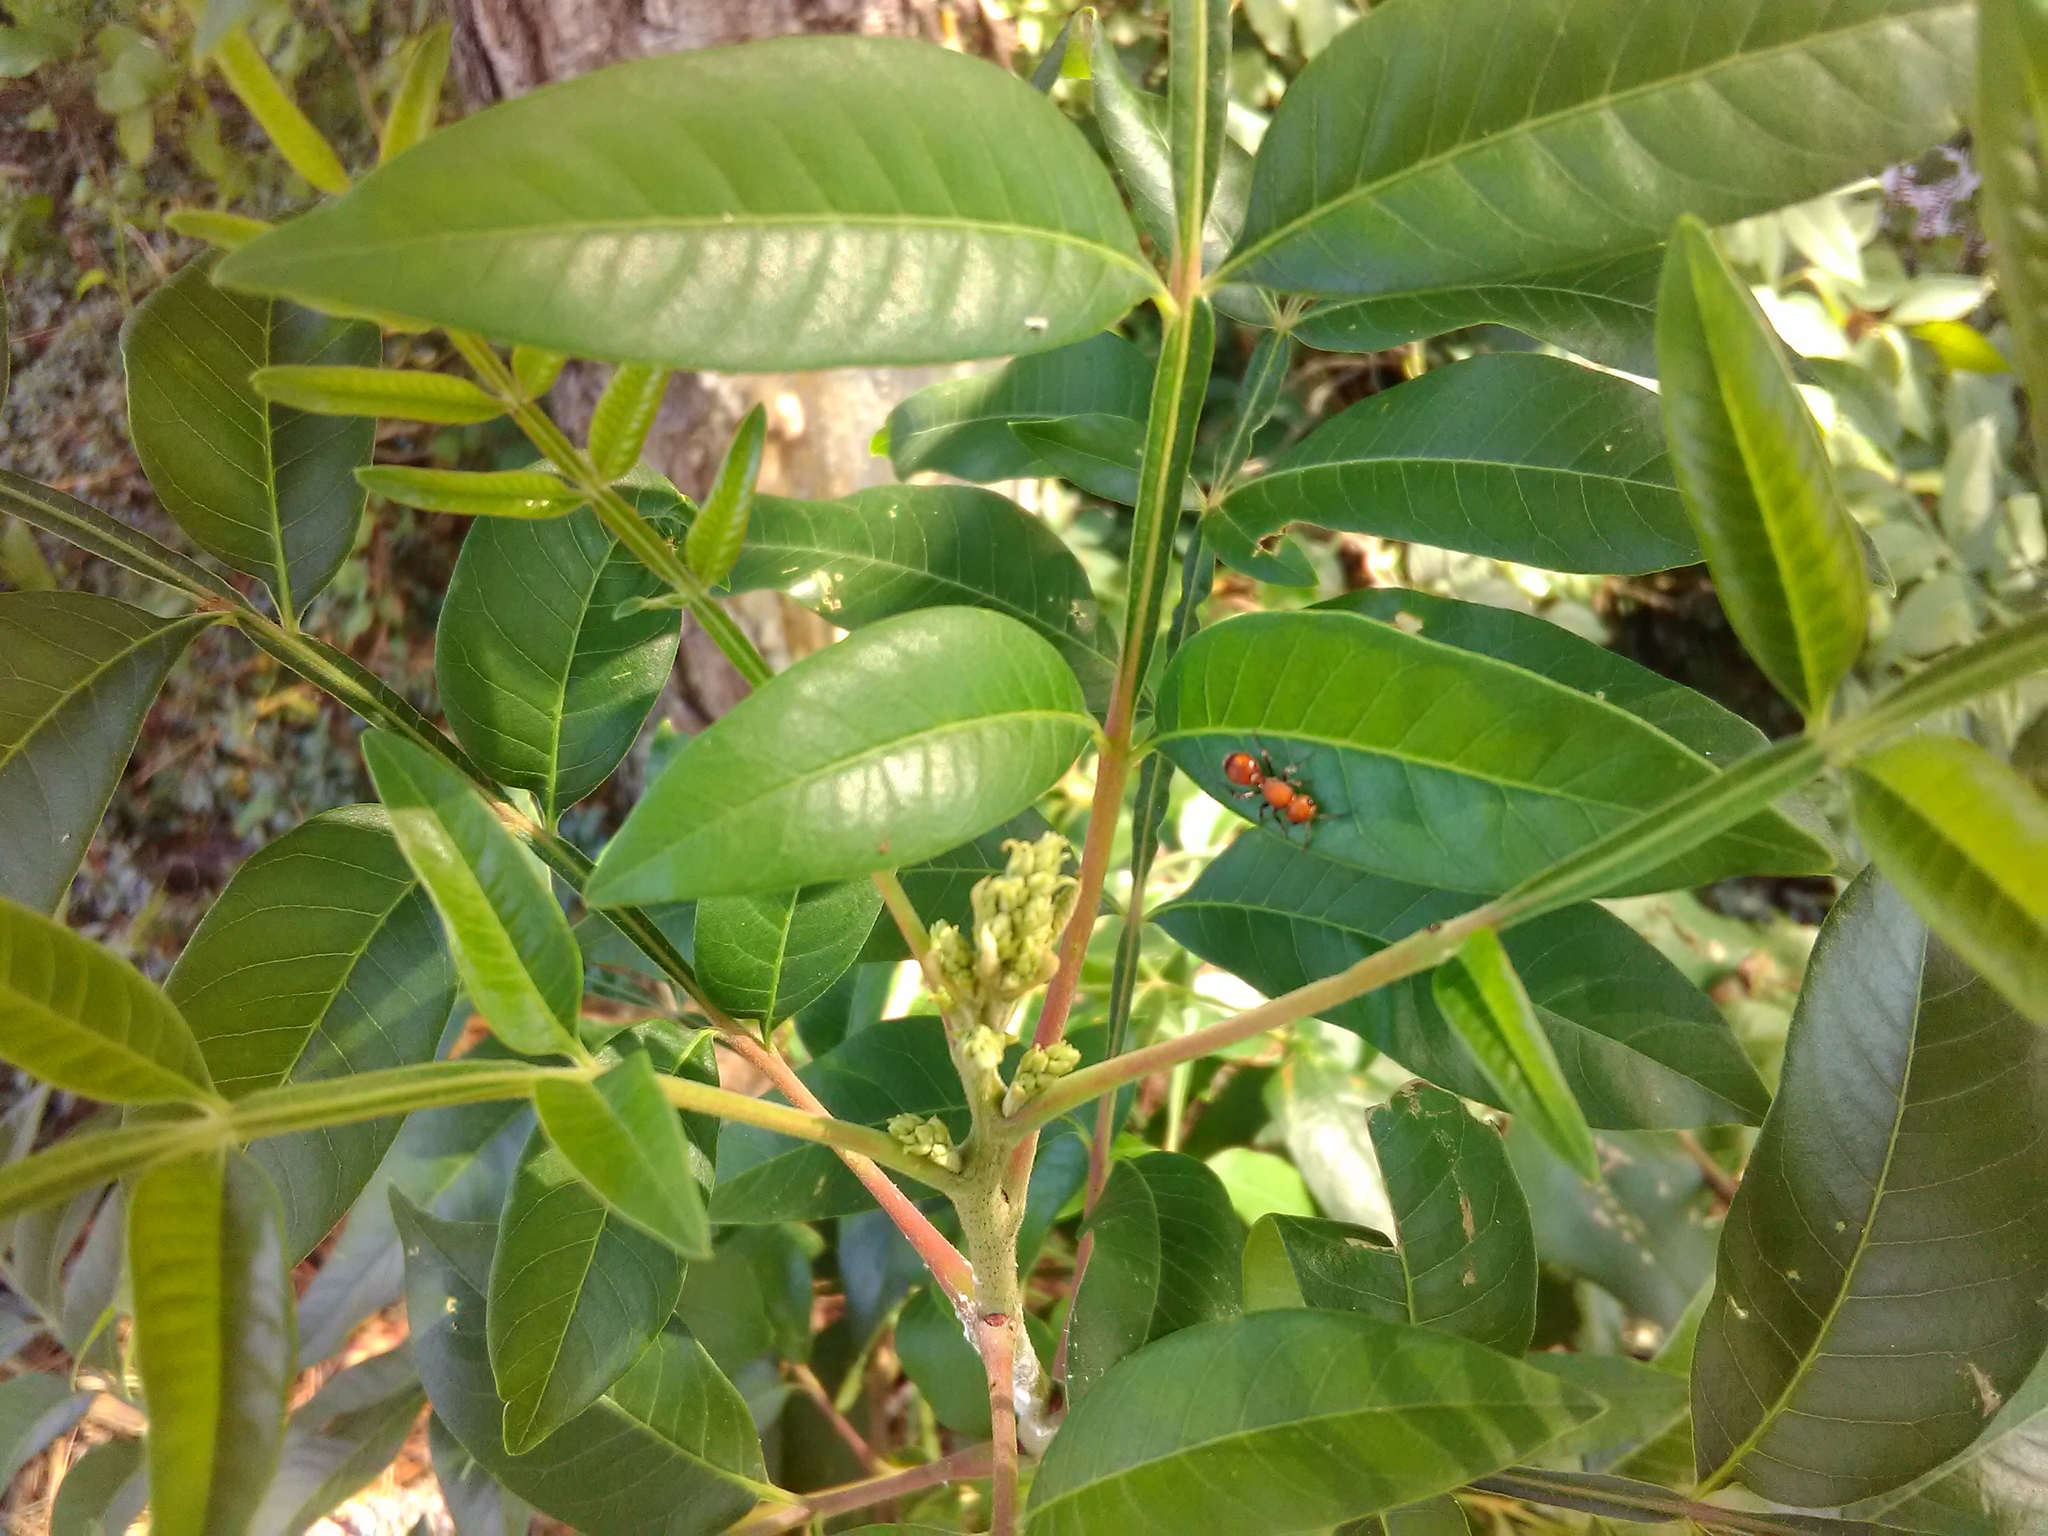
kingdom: Animalia
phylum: Arthropoda
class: Insecta
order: Hymenoptera
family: Mutillidae
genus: Dasymutilla
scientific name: Dasymutilla
